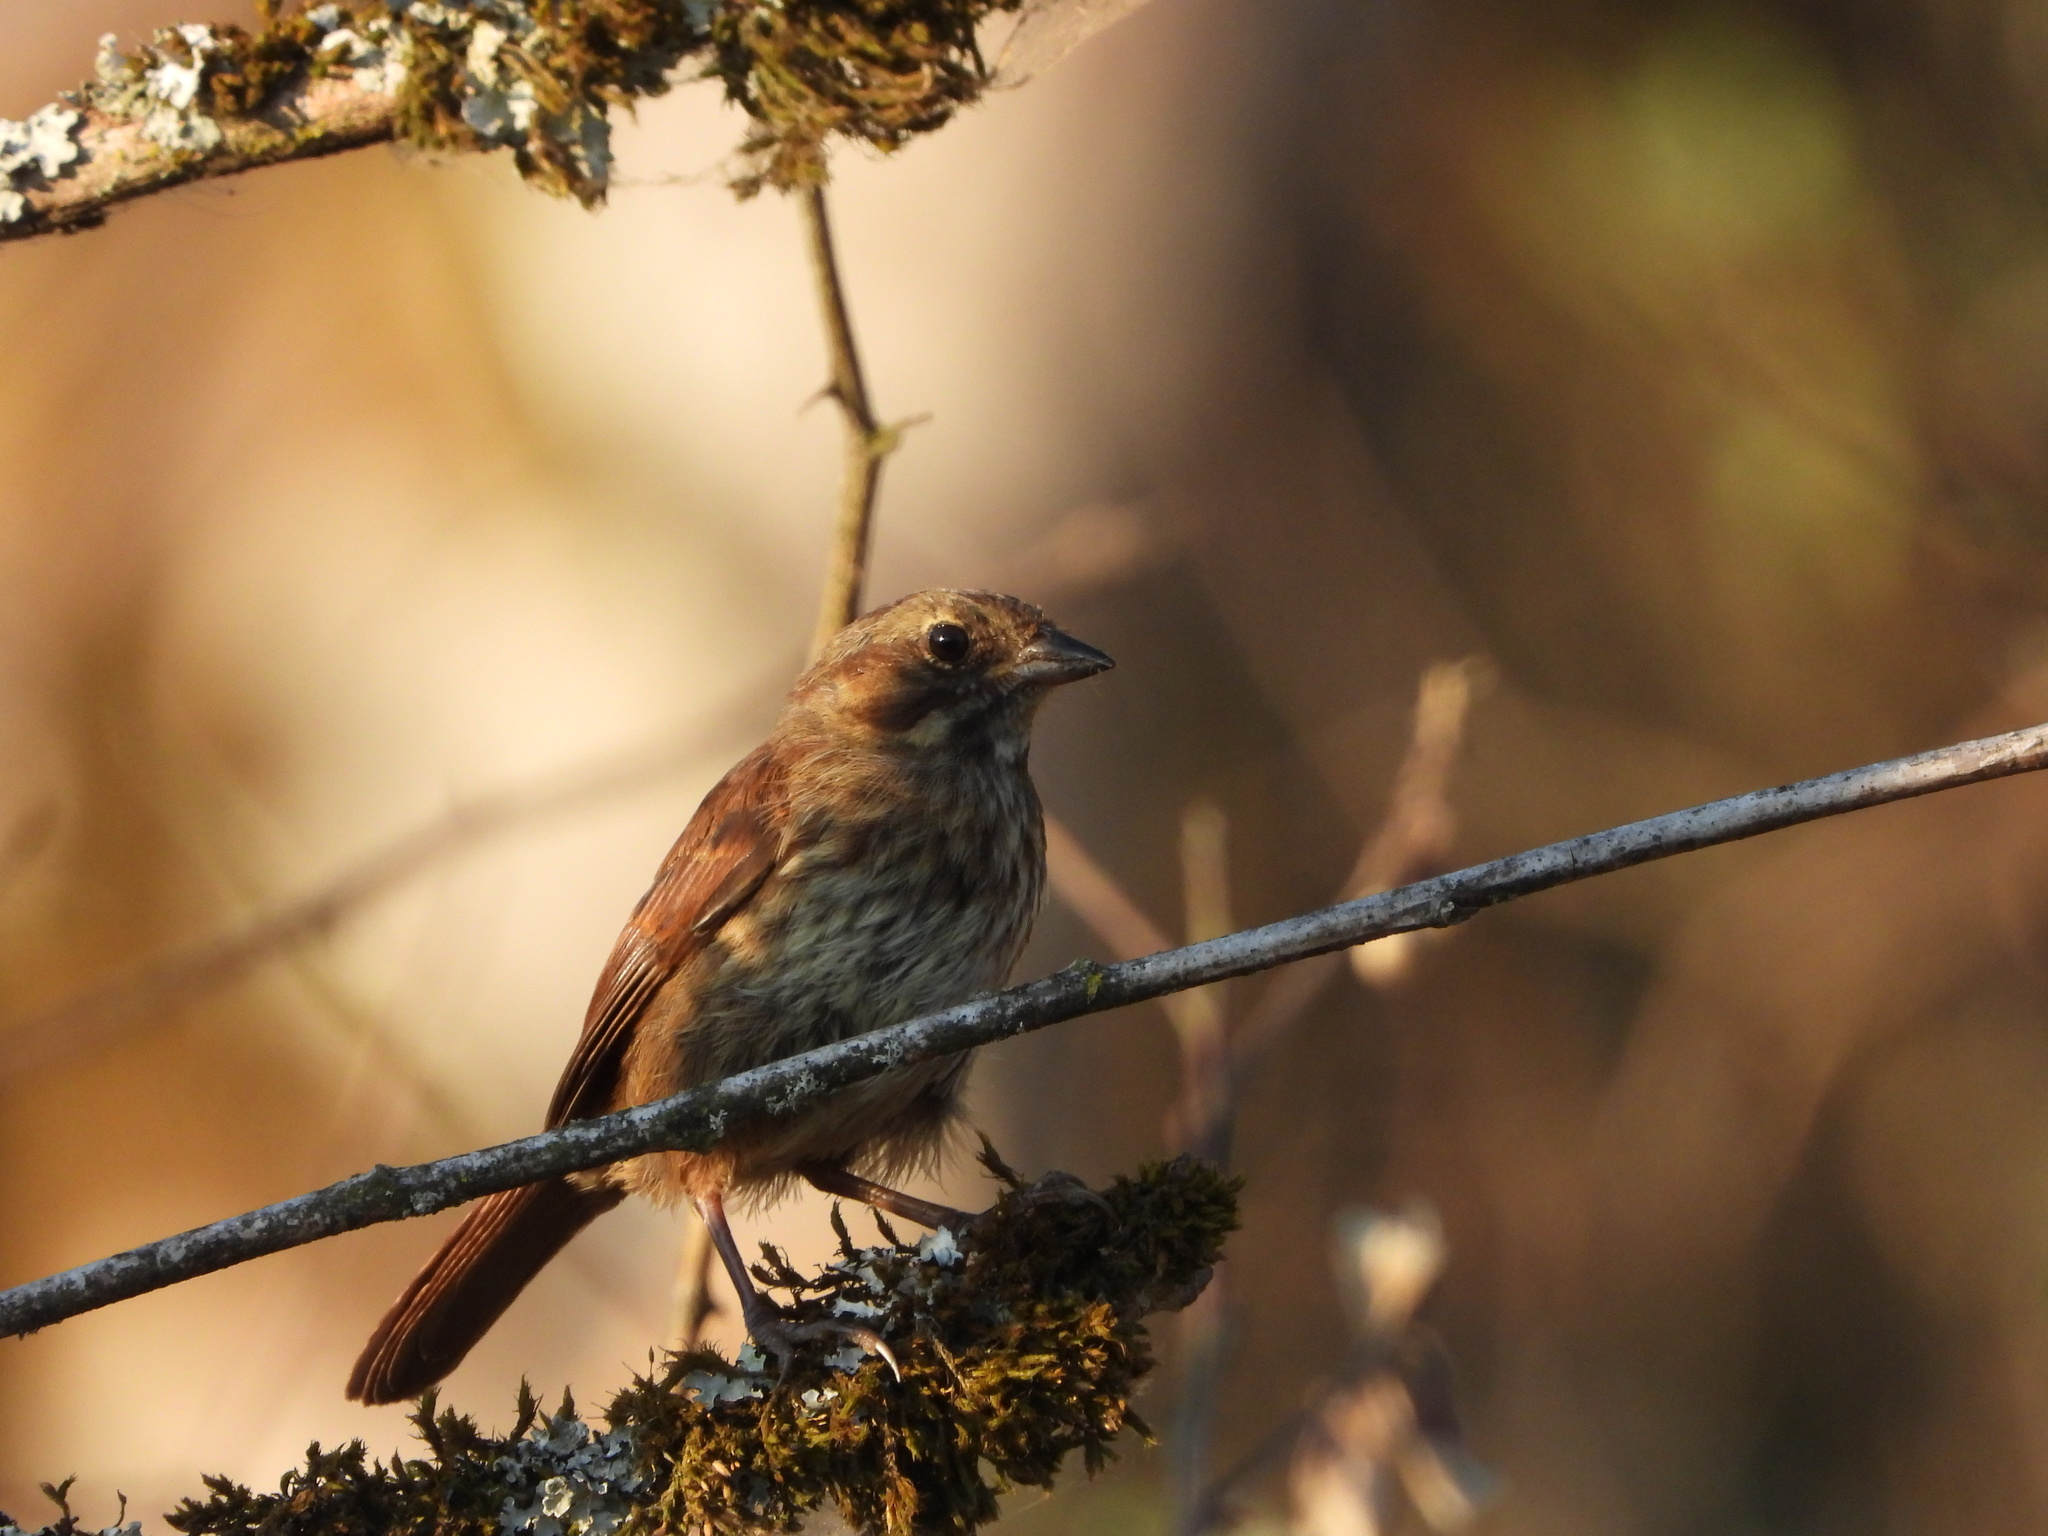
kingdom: Animalia
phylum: Chordata
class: Aves
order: Passeriformes
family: Passerellidae
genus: Melospiza
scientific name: Melospiza melodia
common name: Song sparrow
